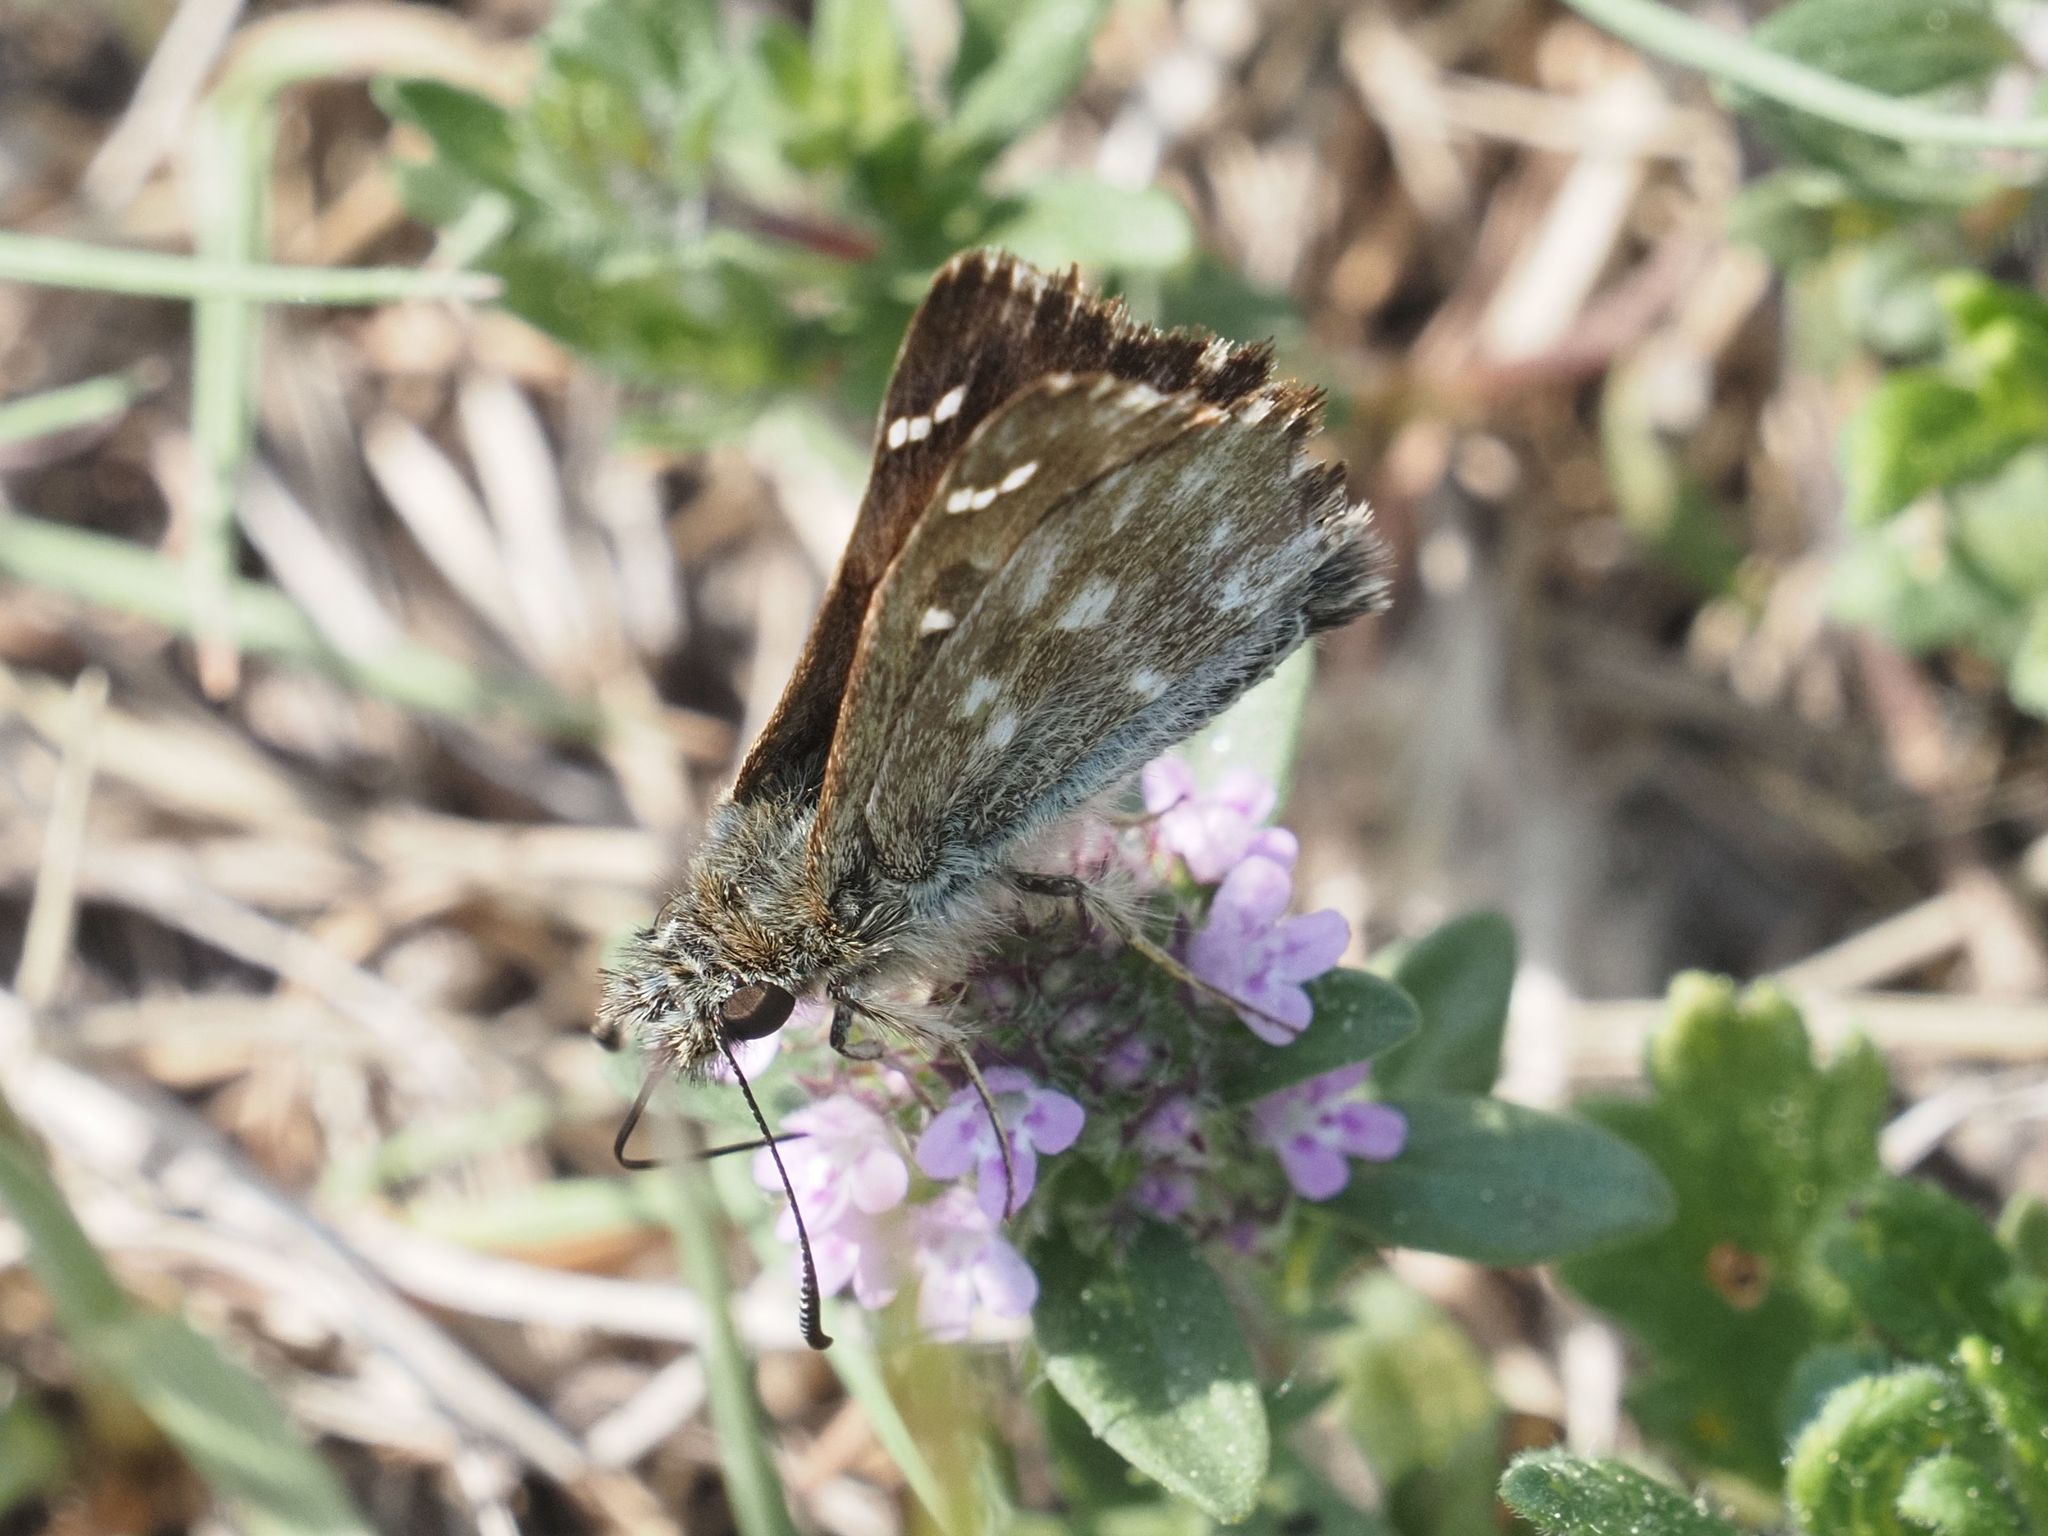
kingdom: Animalia
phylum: Arthropoda
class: Insecta
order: Lepidoptera
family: Hesperiidae
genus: Carcharodus
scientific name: Carcharodus alceae
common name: Mallow skipper
